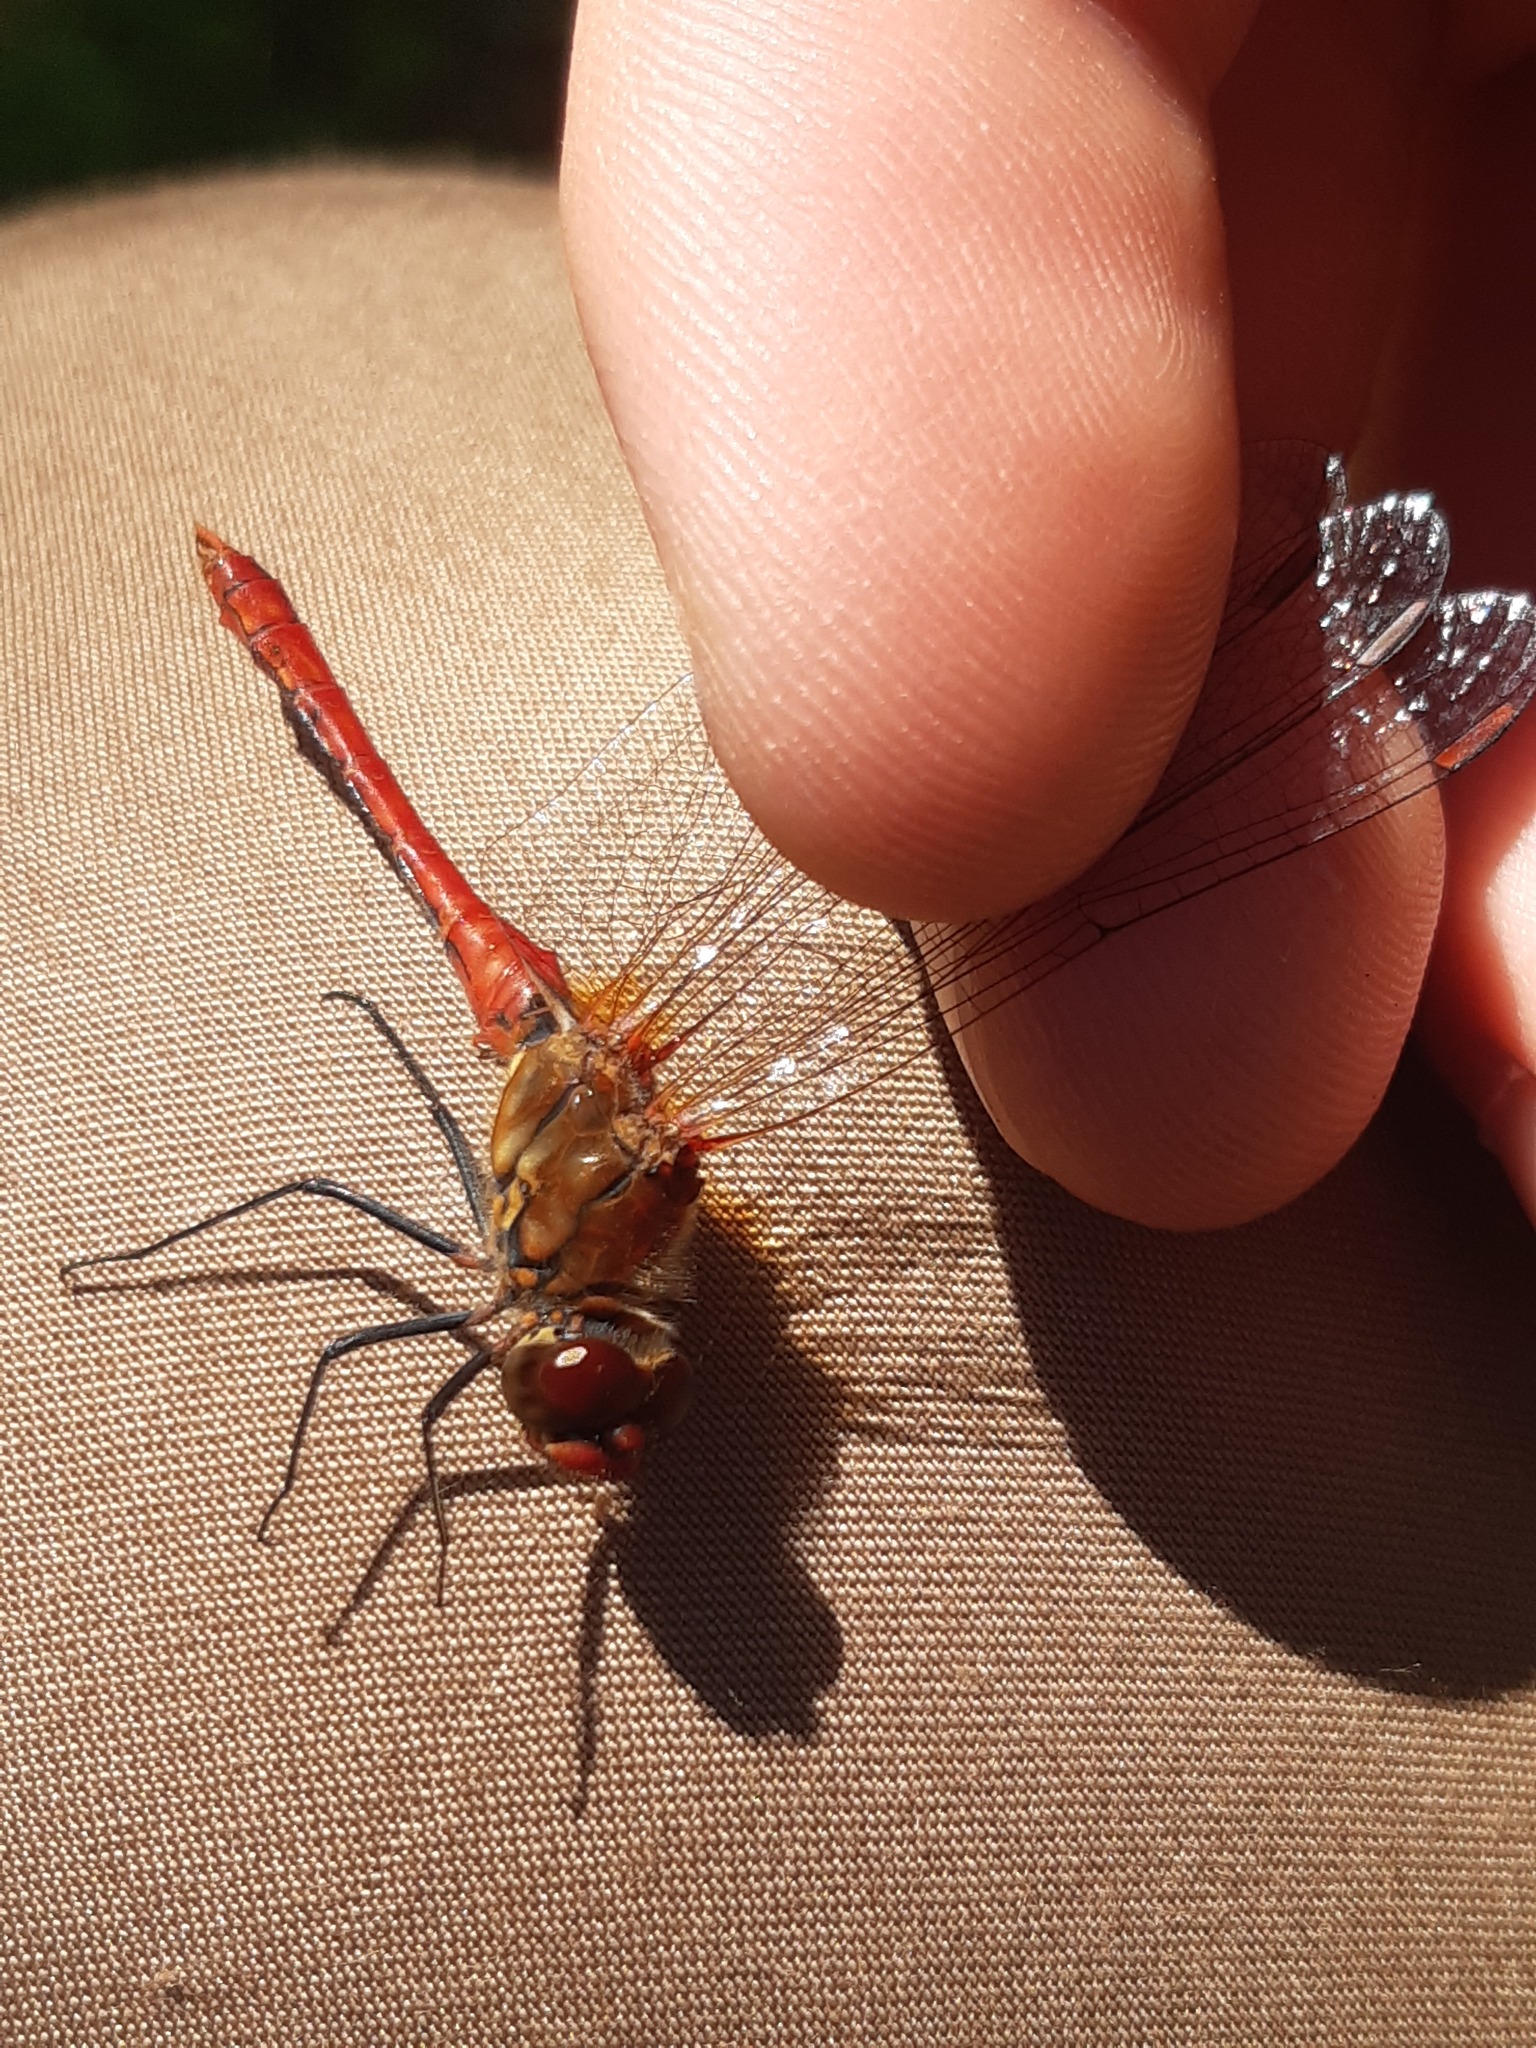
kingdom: Animalia
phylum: Arthropoda
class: Insecta
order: Odonata
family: Libellulidae
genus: Sympetrum
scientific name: Sympetrum sanguineum
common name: Ruddy darter
